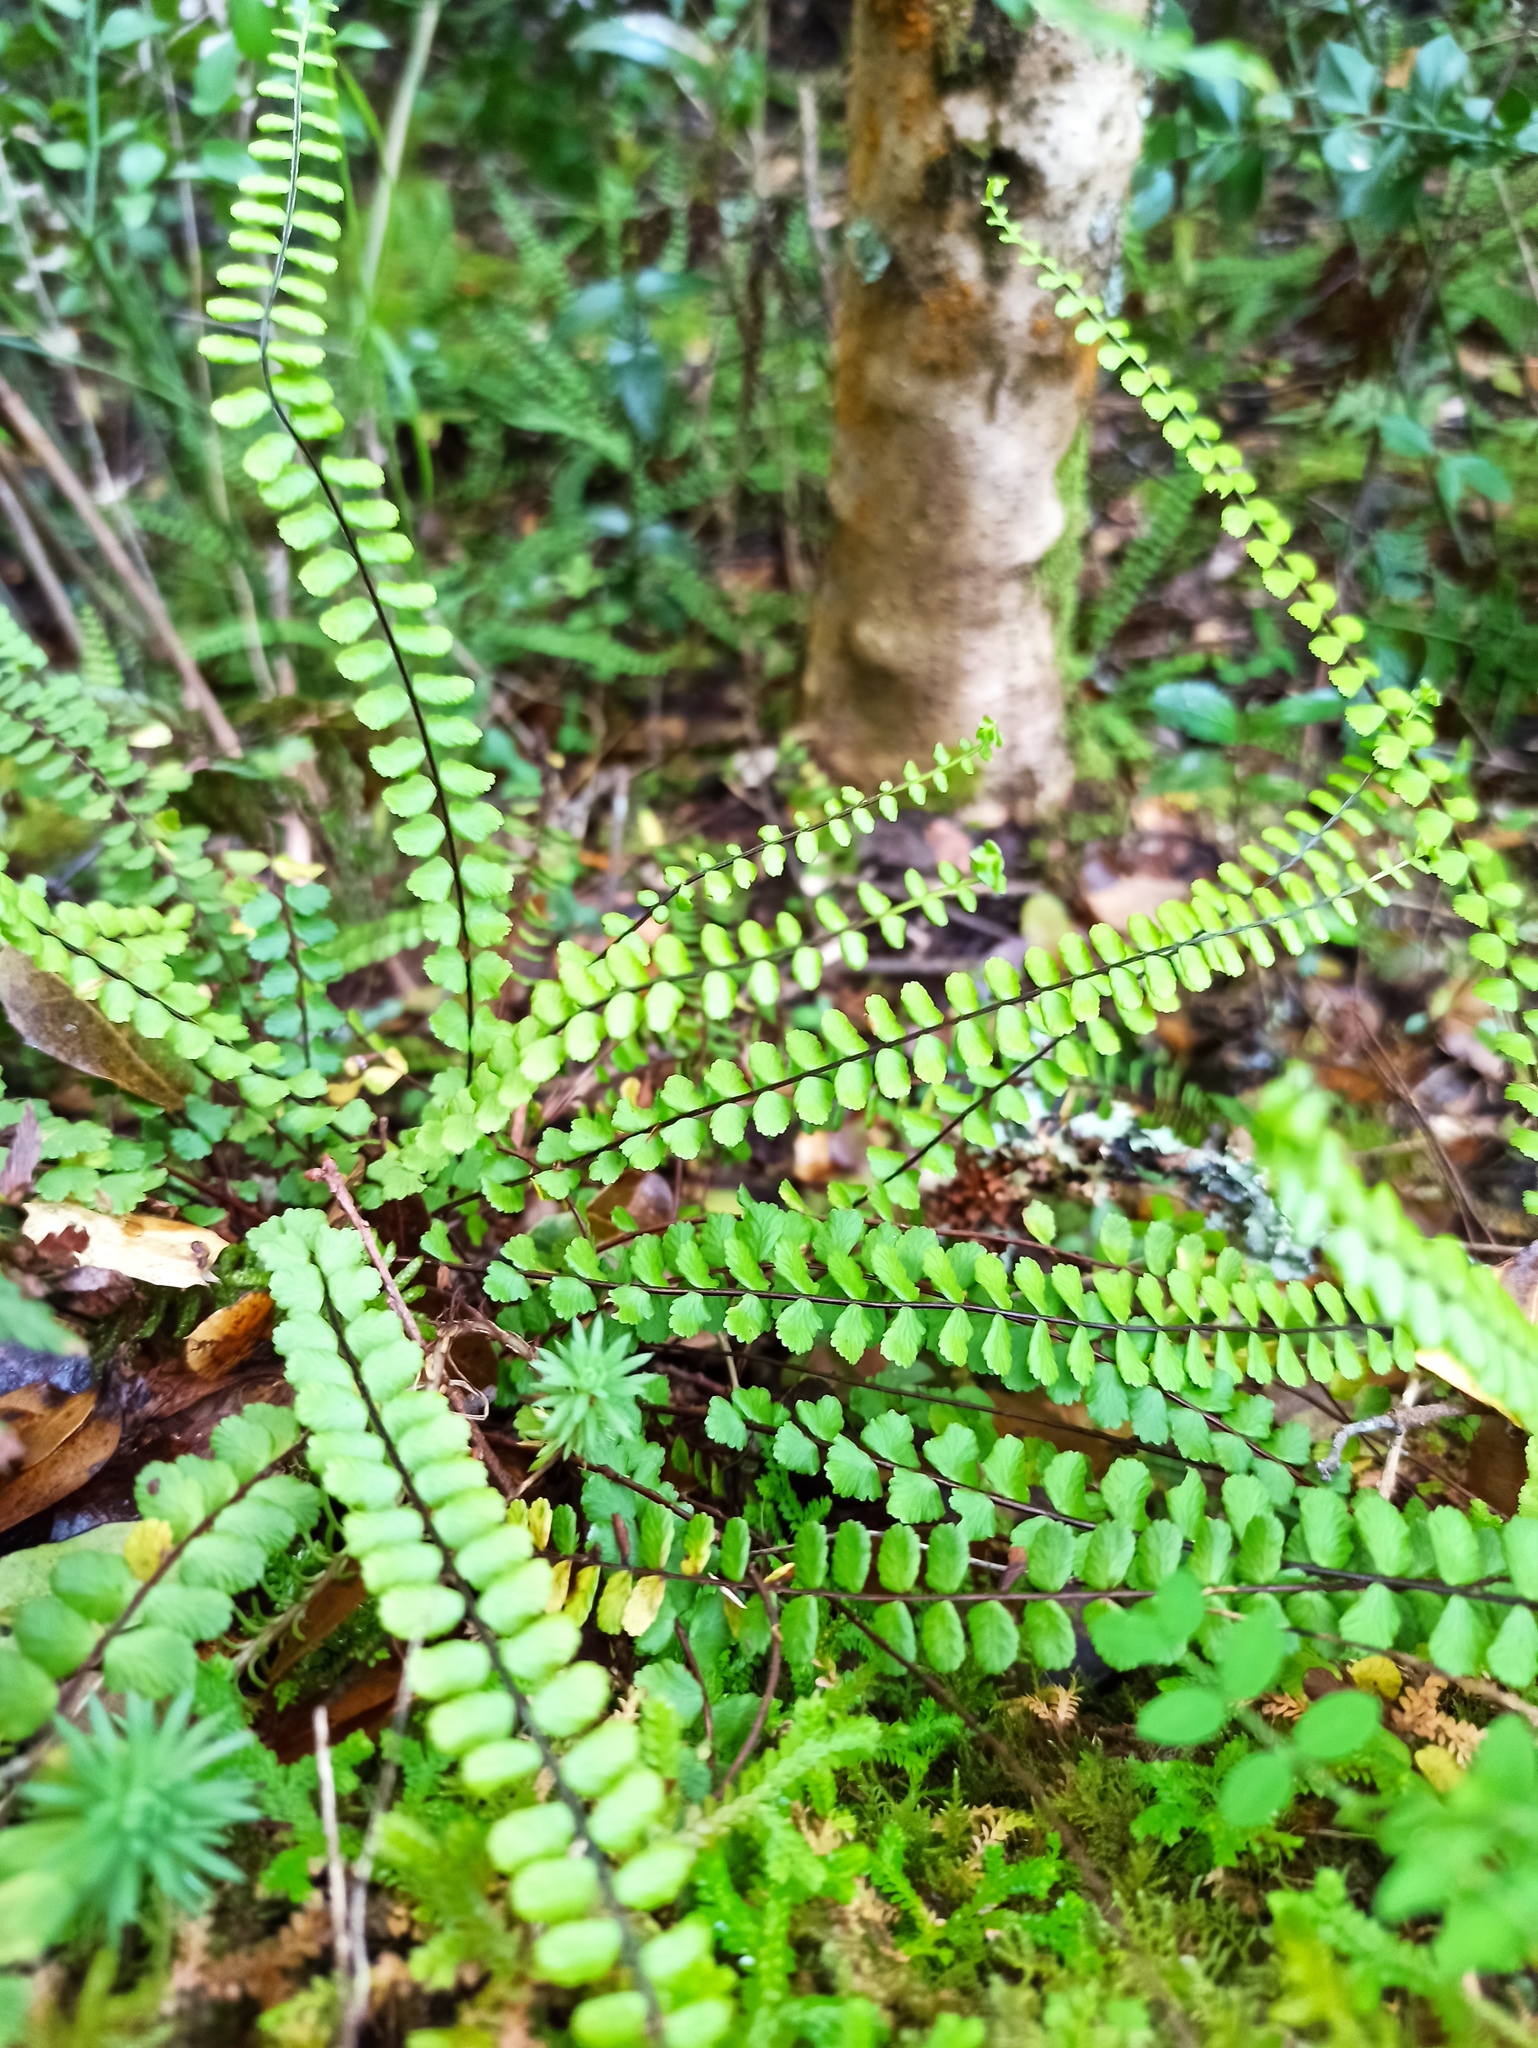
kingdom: Plantae
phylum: Tracheophyta
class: Polypodiopsida
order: Polypodiales
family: Aspleniaceae
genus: Asplenium
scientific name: Asplenium trichomanes
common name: Maidenhair spleenwort
